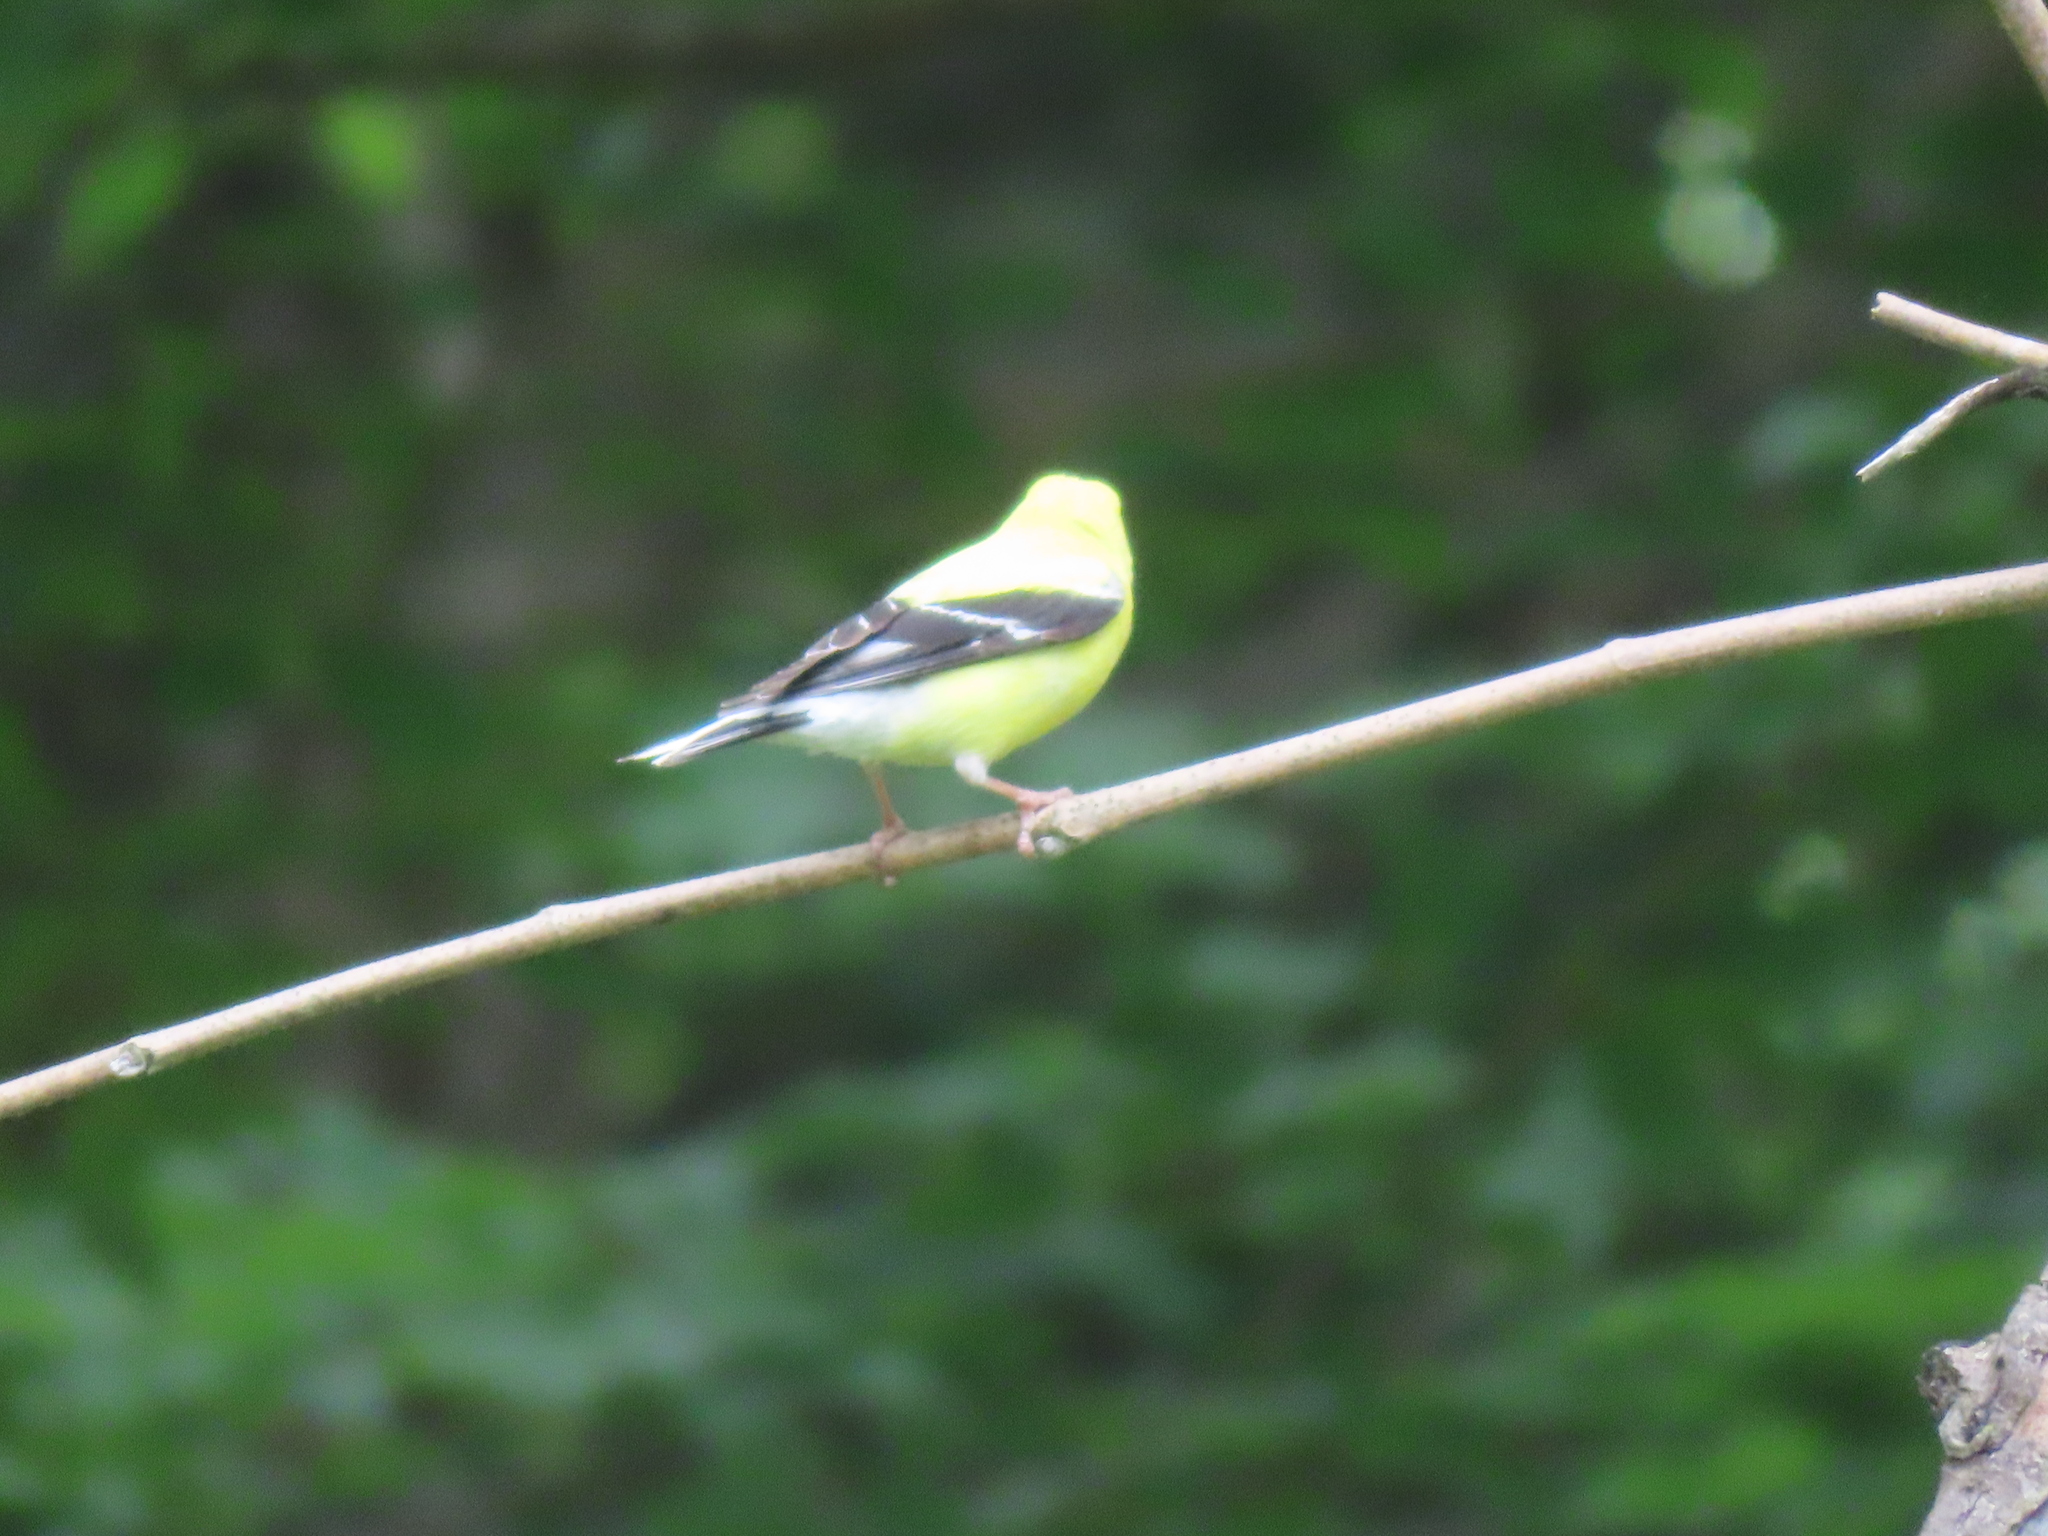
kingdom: Animalia
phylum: Chordata
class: Aves
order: Passeriformes
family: Fringillidae
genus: Spinus
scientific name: Spinus tristis
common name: American goldfinch
